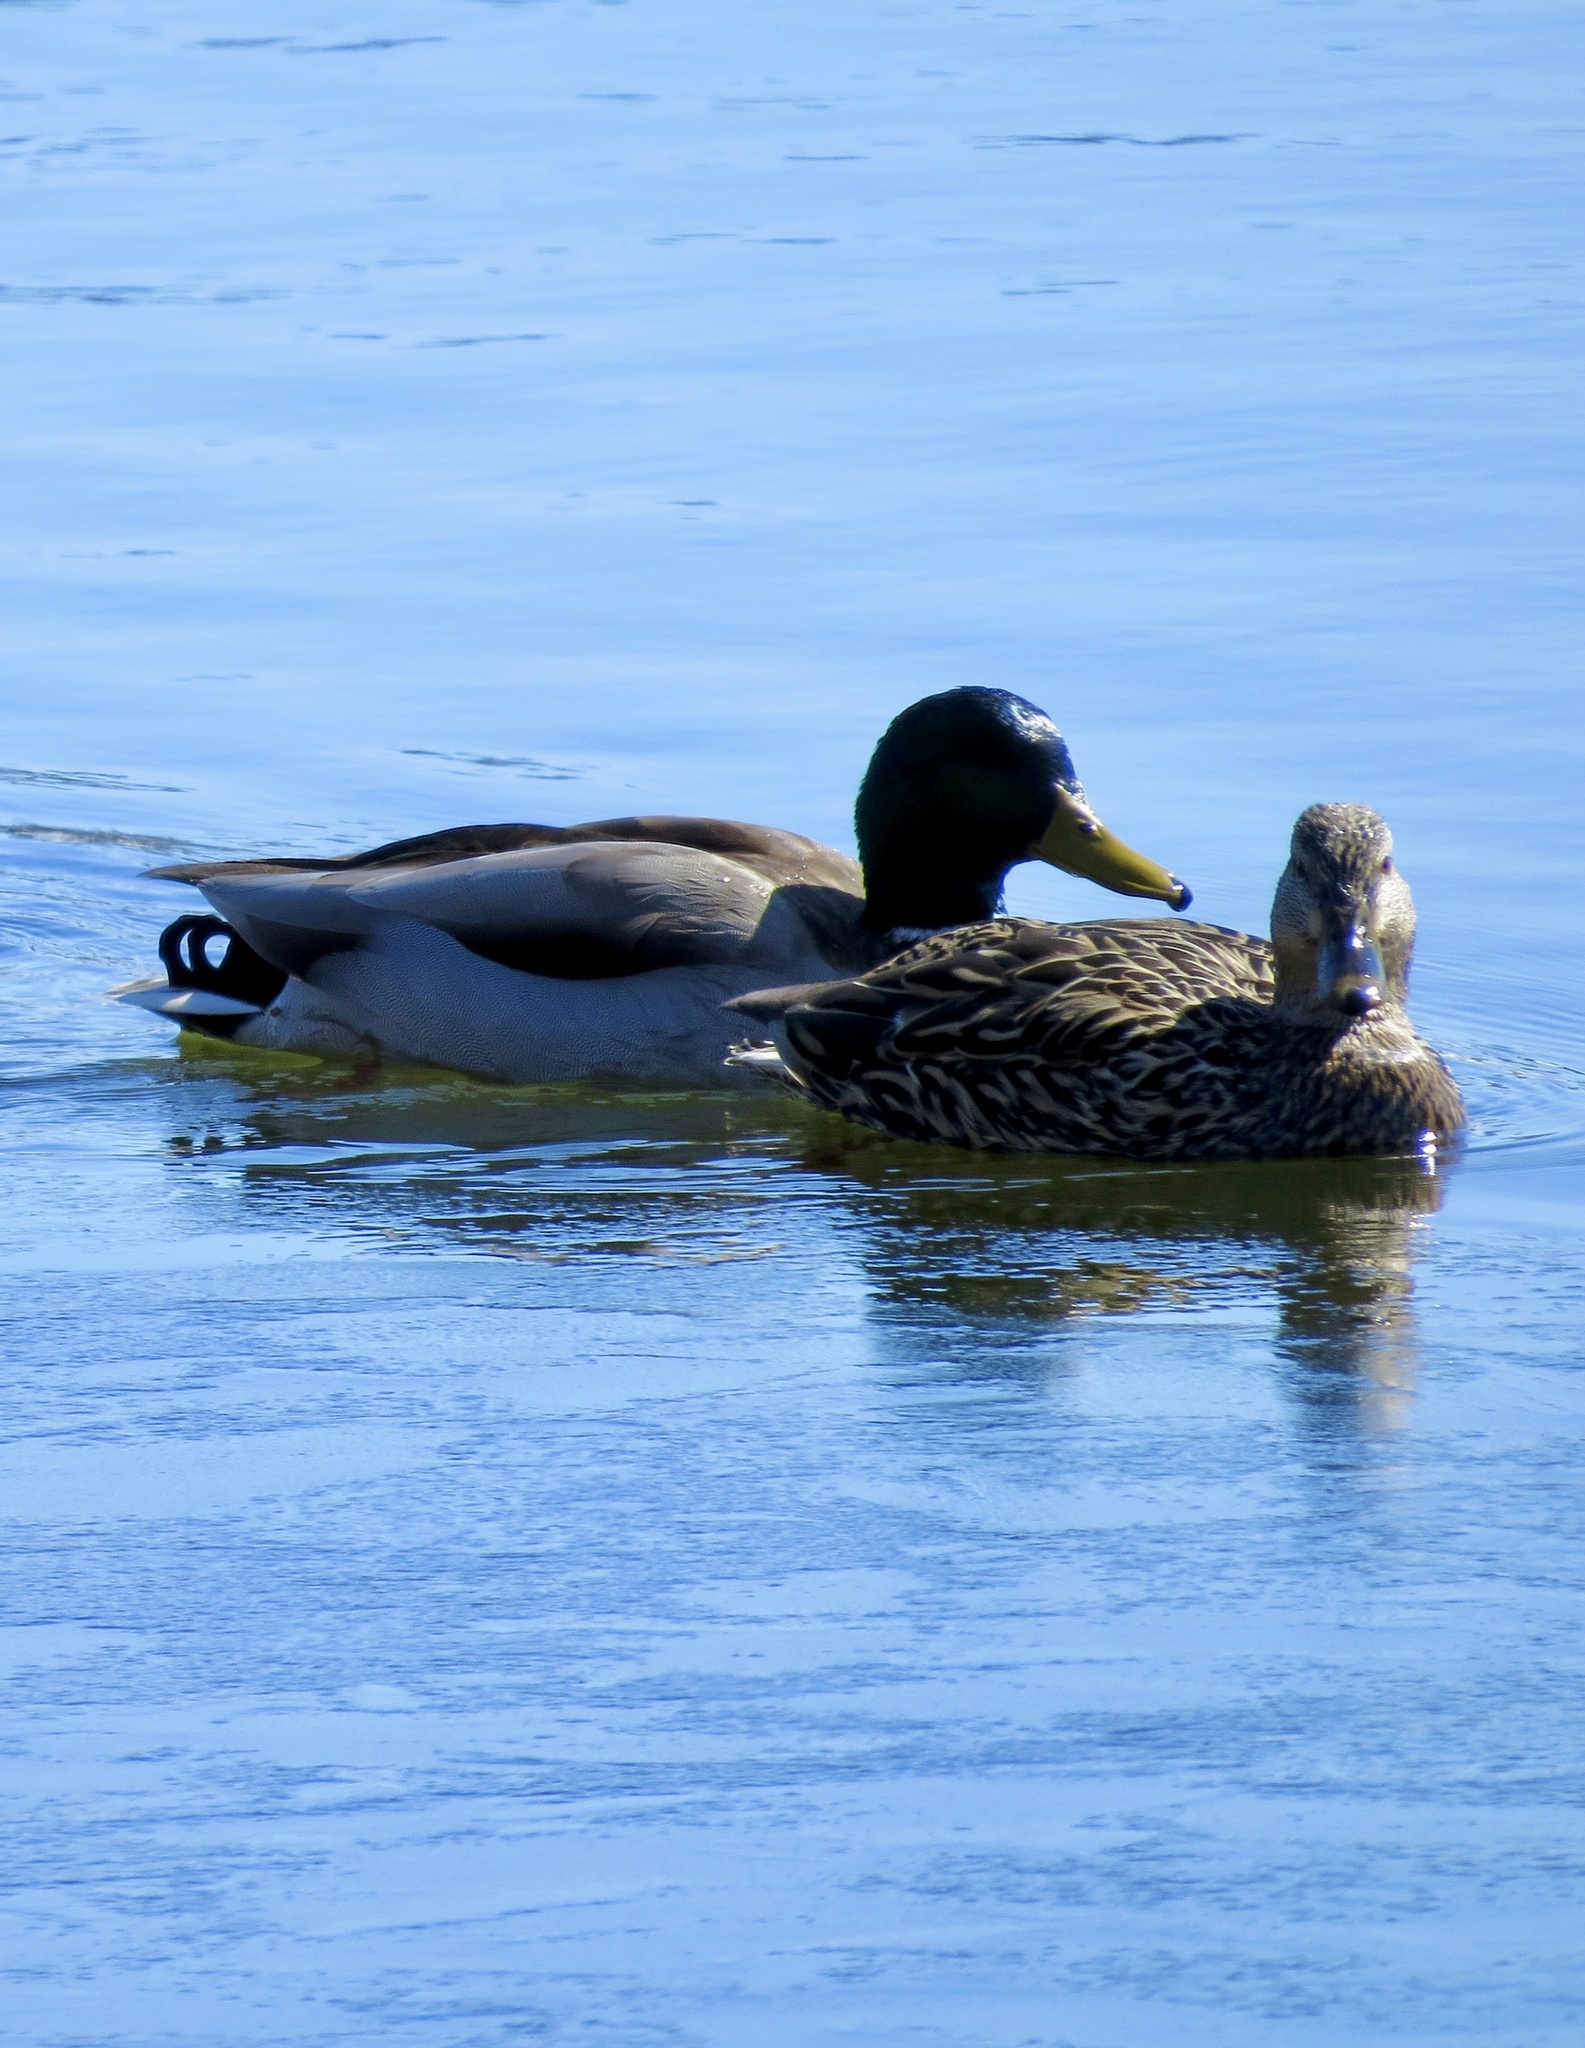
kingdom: Animalia
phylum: Chordata
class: Aves
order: Anseriformes
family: Anatidae
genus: Anas
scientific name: Anas platyrhynchos
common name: Mallard
